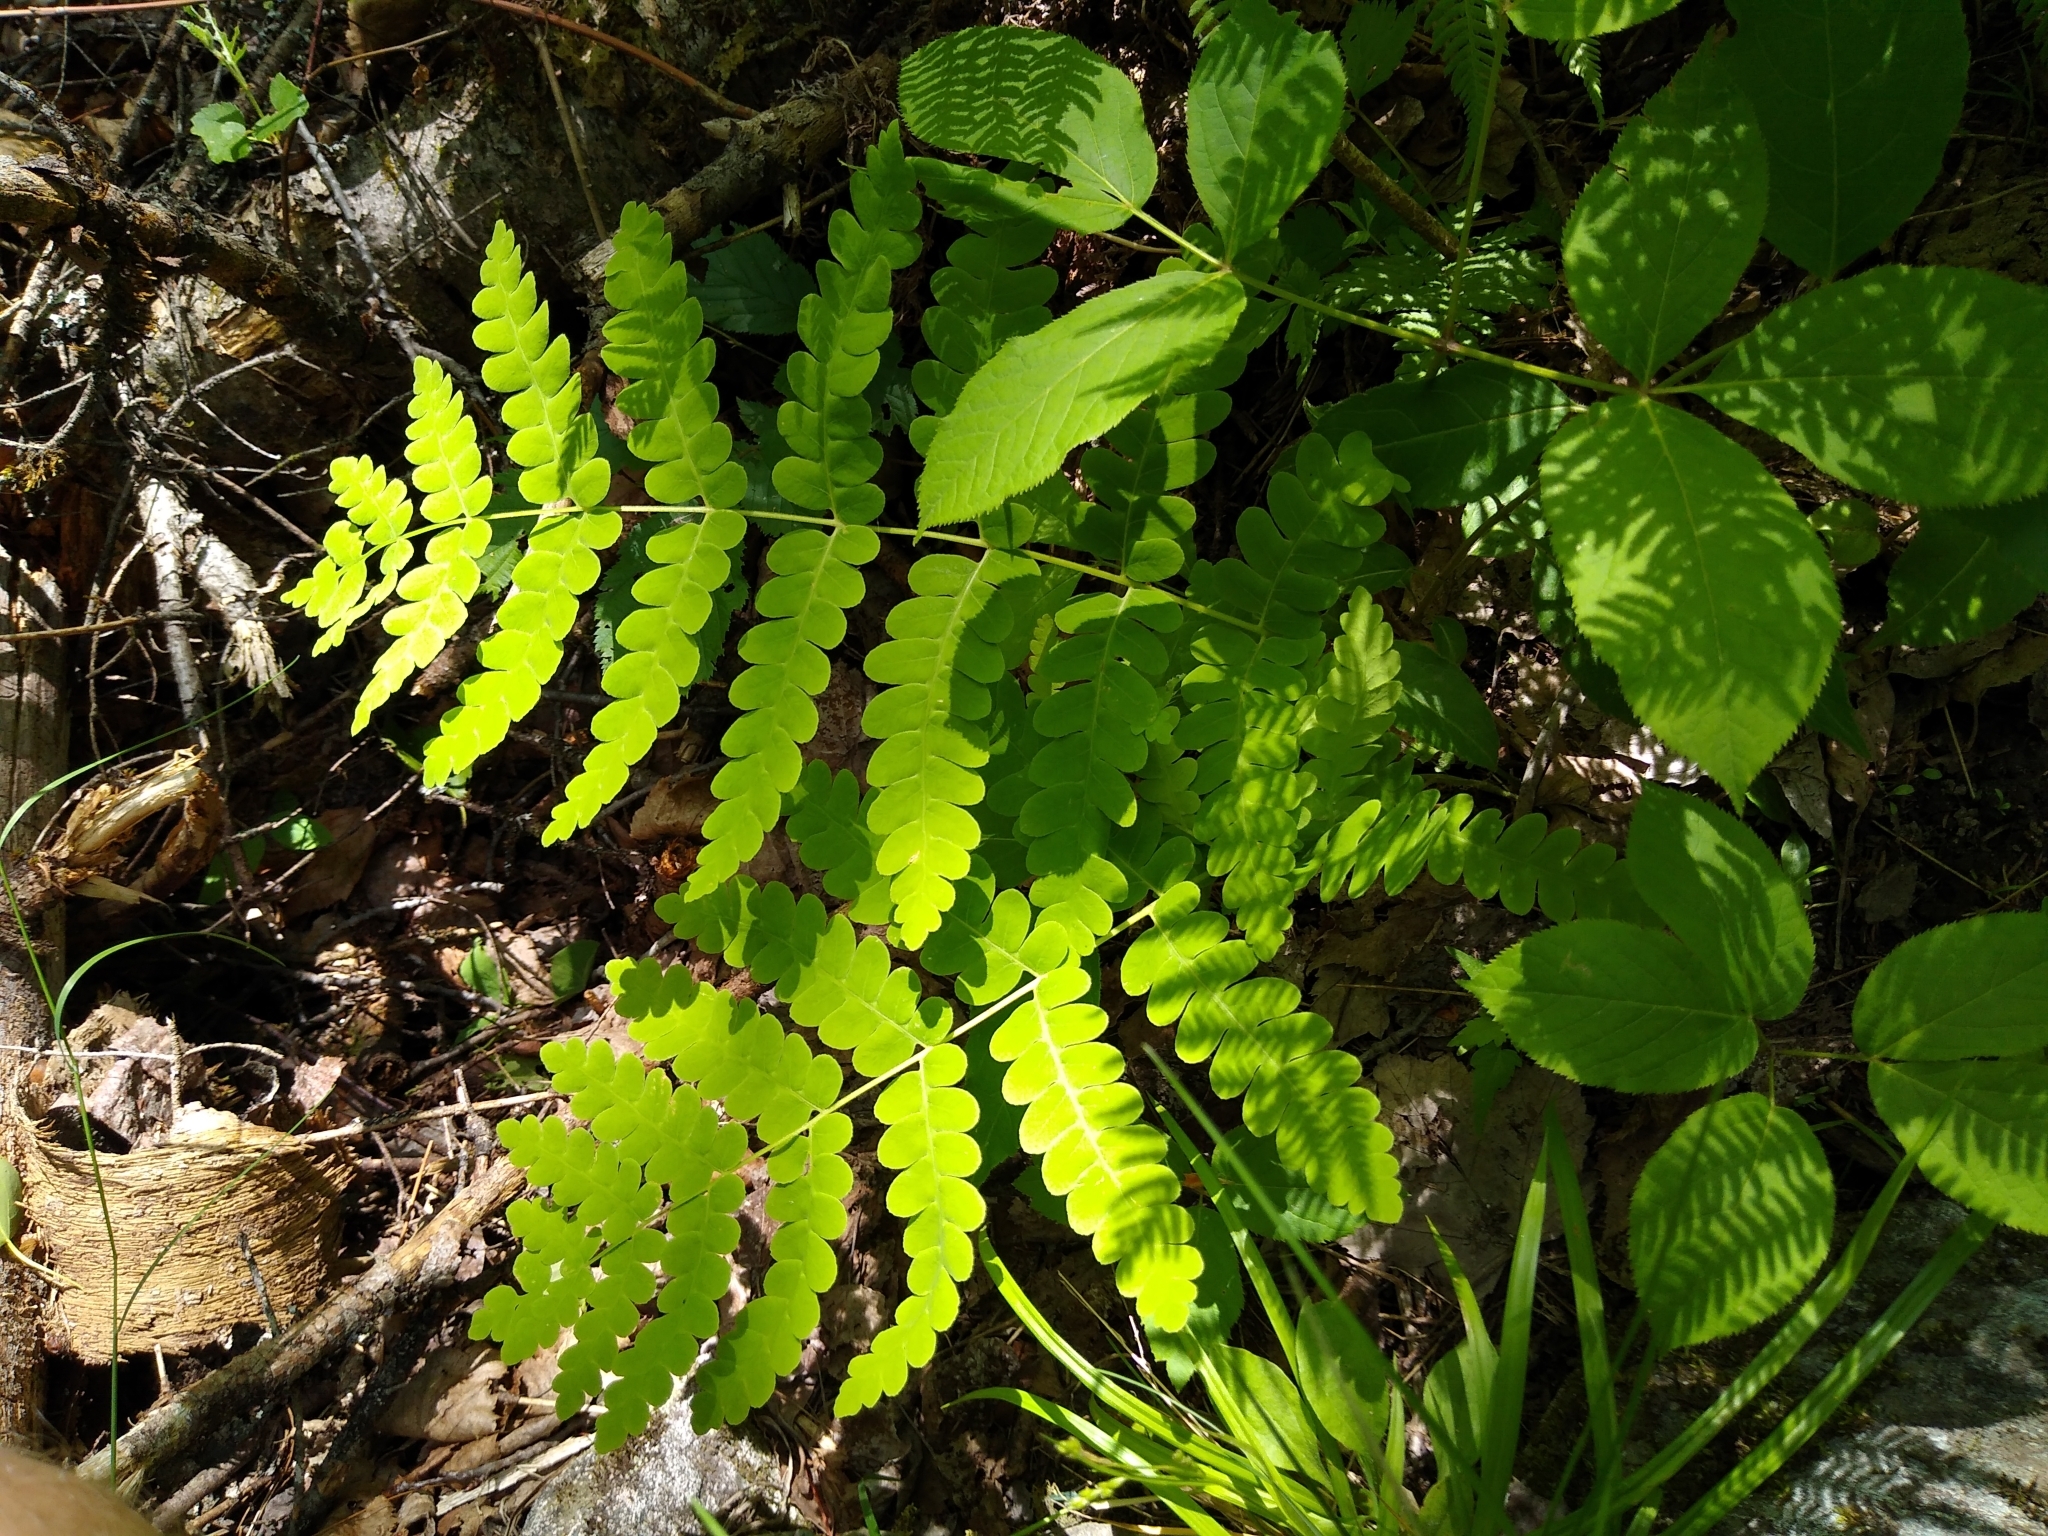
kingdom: Plantae
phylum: Tracheophyta
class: Polypodiopsida
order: Osmundales
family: Osmundaceae
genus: Claytosmunda
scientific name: Claytosmunda claytoniana
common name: Clayton's fern
